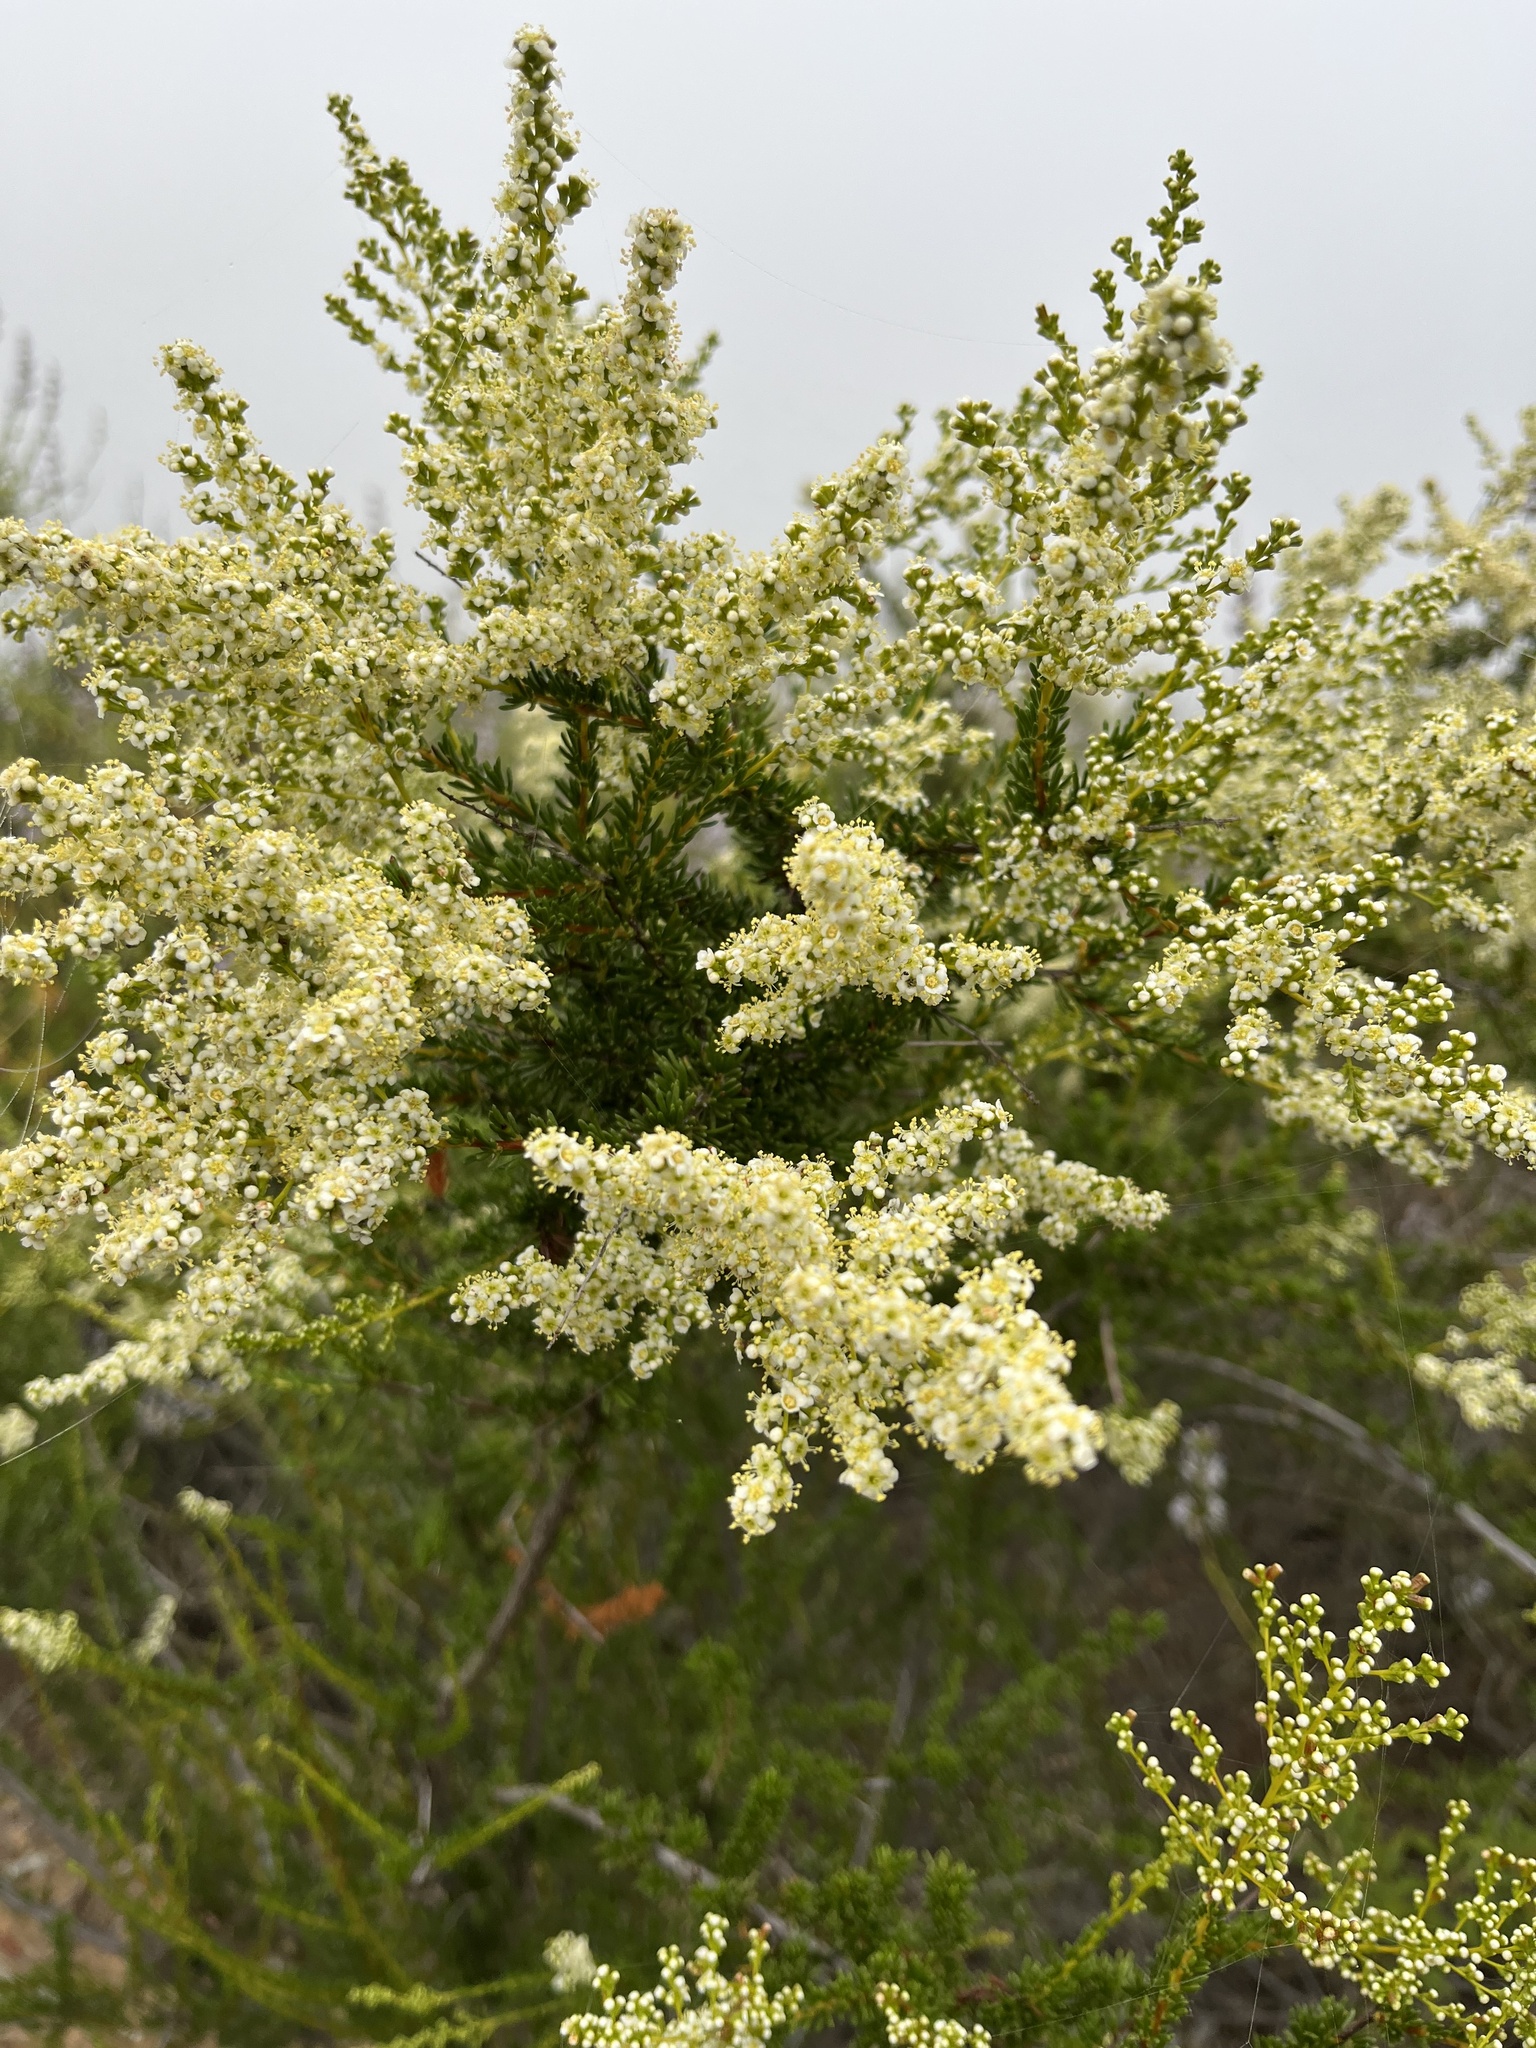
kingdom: Plantae
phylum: Tracheophyta
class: Magnoliopsida
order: Rosales
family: Rosaceae
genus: Adenostoma
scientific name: Adenostoma fasciculatum
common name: Chamise
